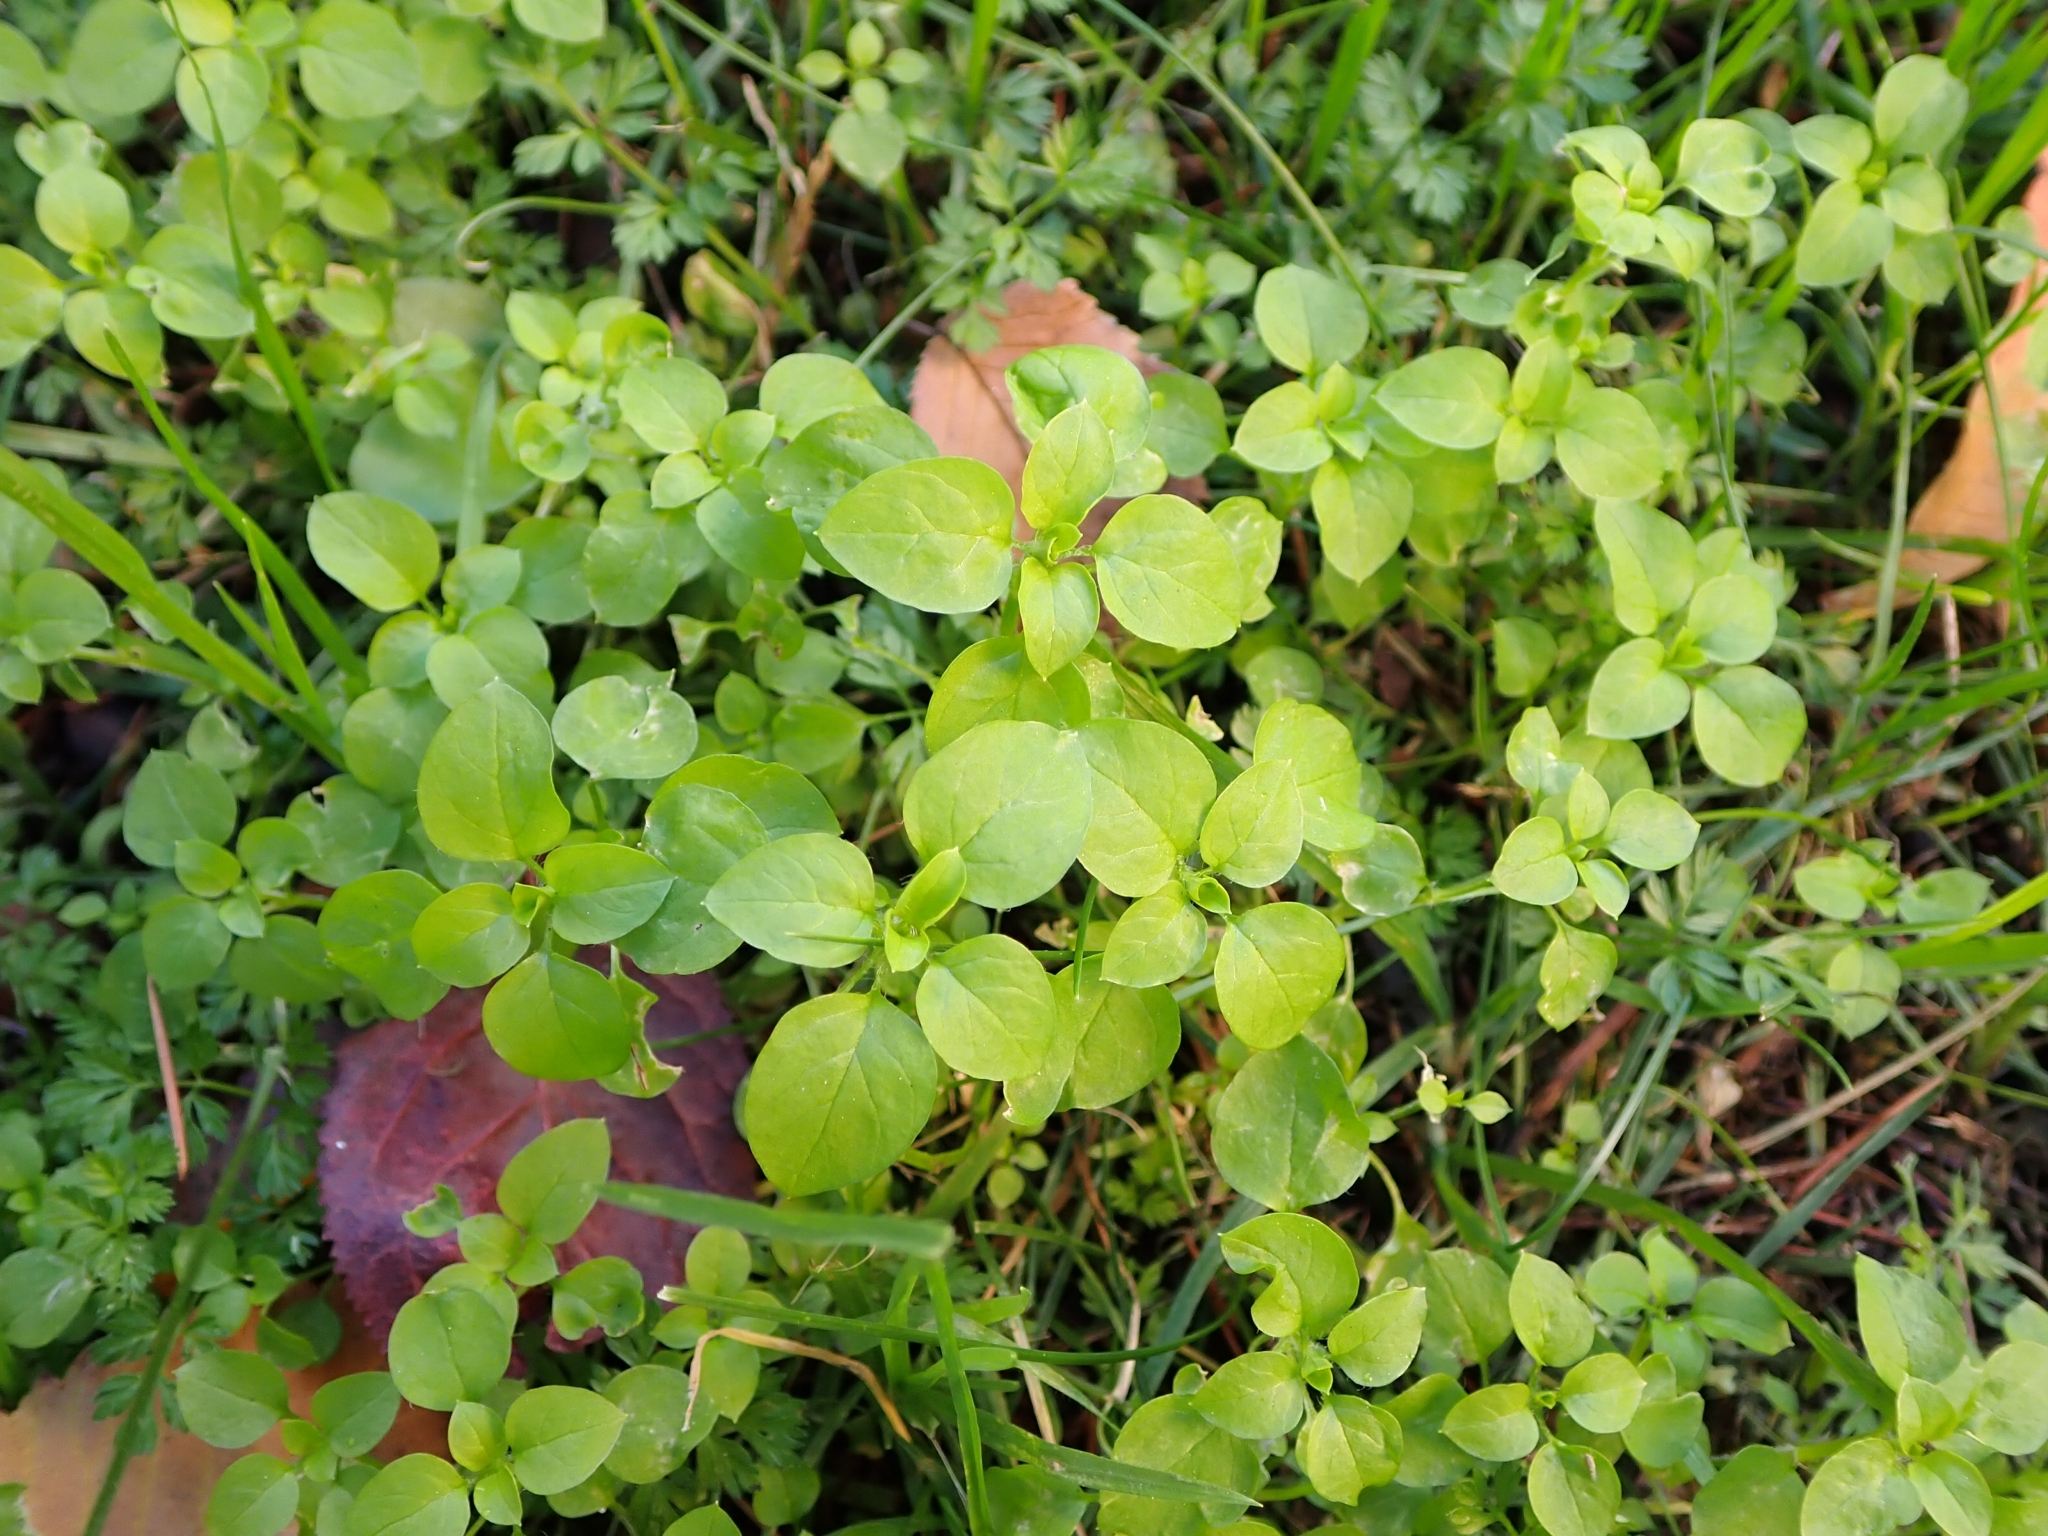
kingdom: Plantae
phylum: Tracheophyta
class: Magnoliopsida
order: Caryophyllales
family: Caryophyllaceae
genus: Stellaria
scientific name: Stellaria media
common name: Common chickweed
